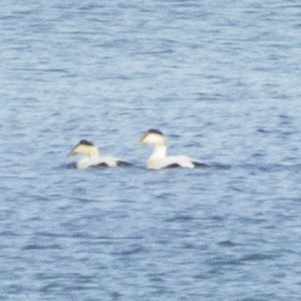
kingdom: Animalia
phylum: Chordata
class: Aves
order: Anseriformes
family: Anatidae
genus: Somateria
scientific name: Somateria mollissima
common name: Common eider
